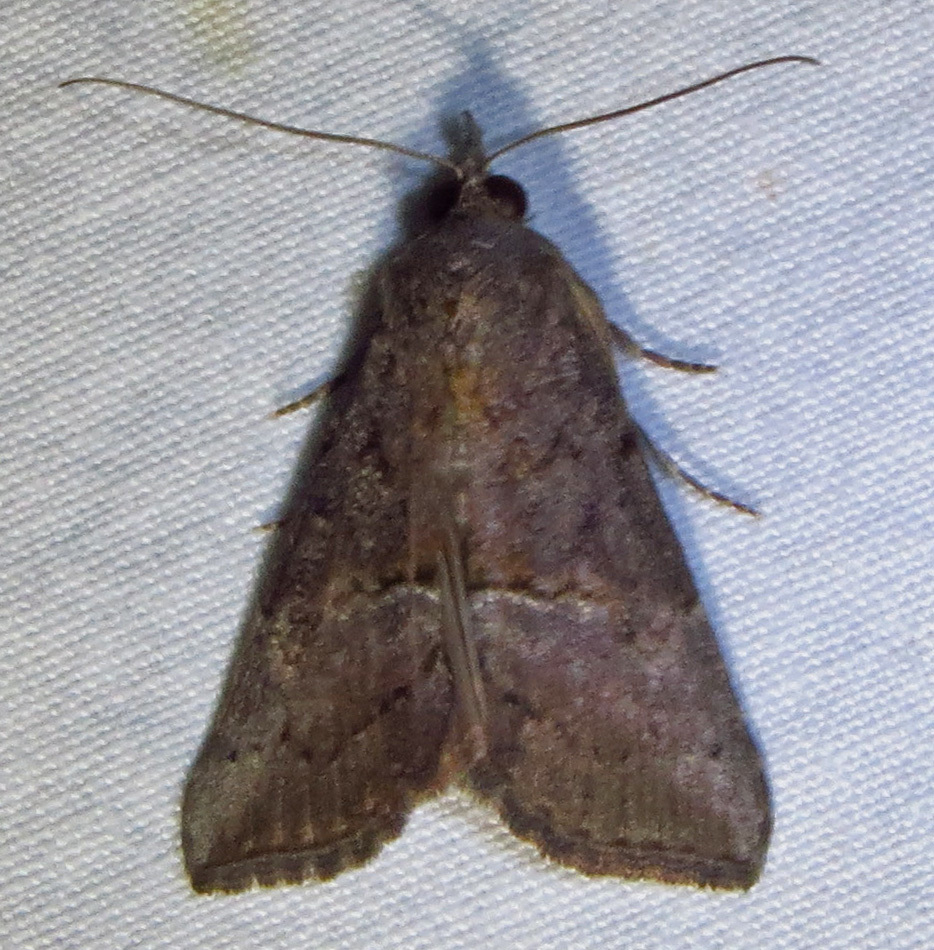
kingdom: Animalia
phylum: Arthropoda
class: Insecta
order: Lepidoptera
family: Erebidae
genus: Hypena
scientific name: Hypena scabra
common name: Green cloverworm
